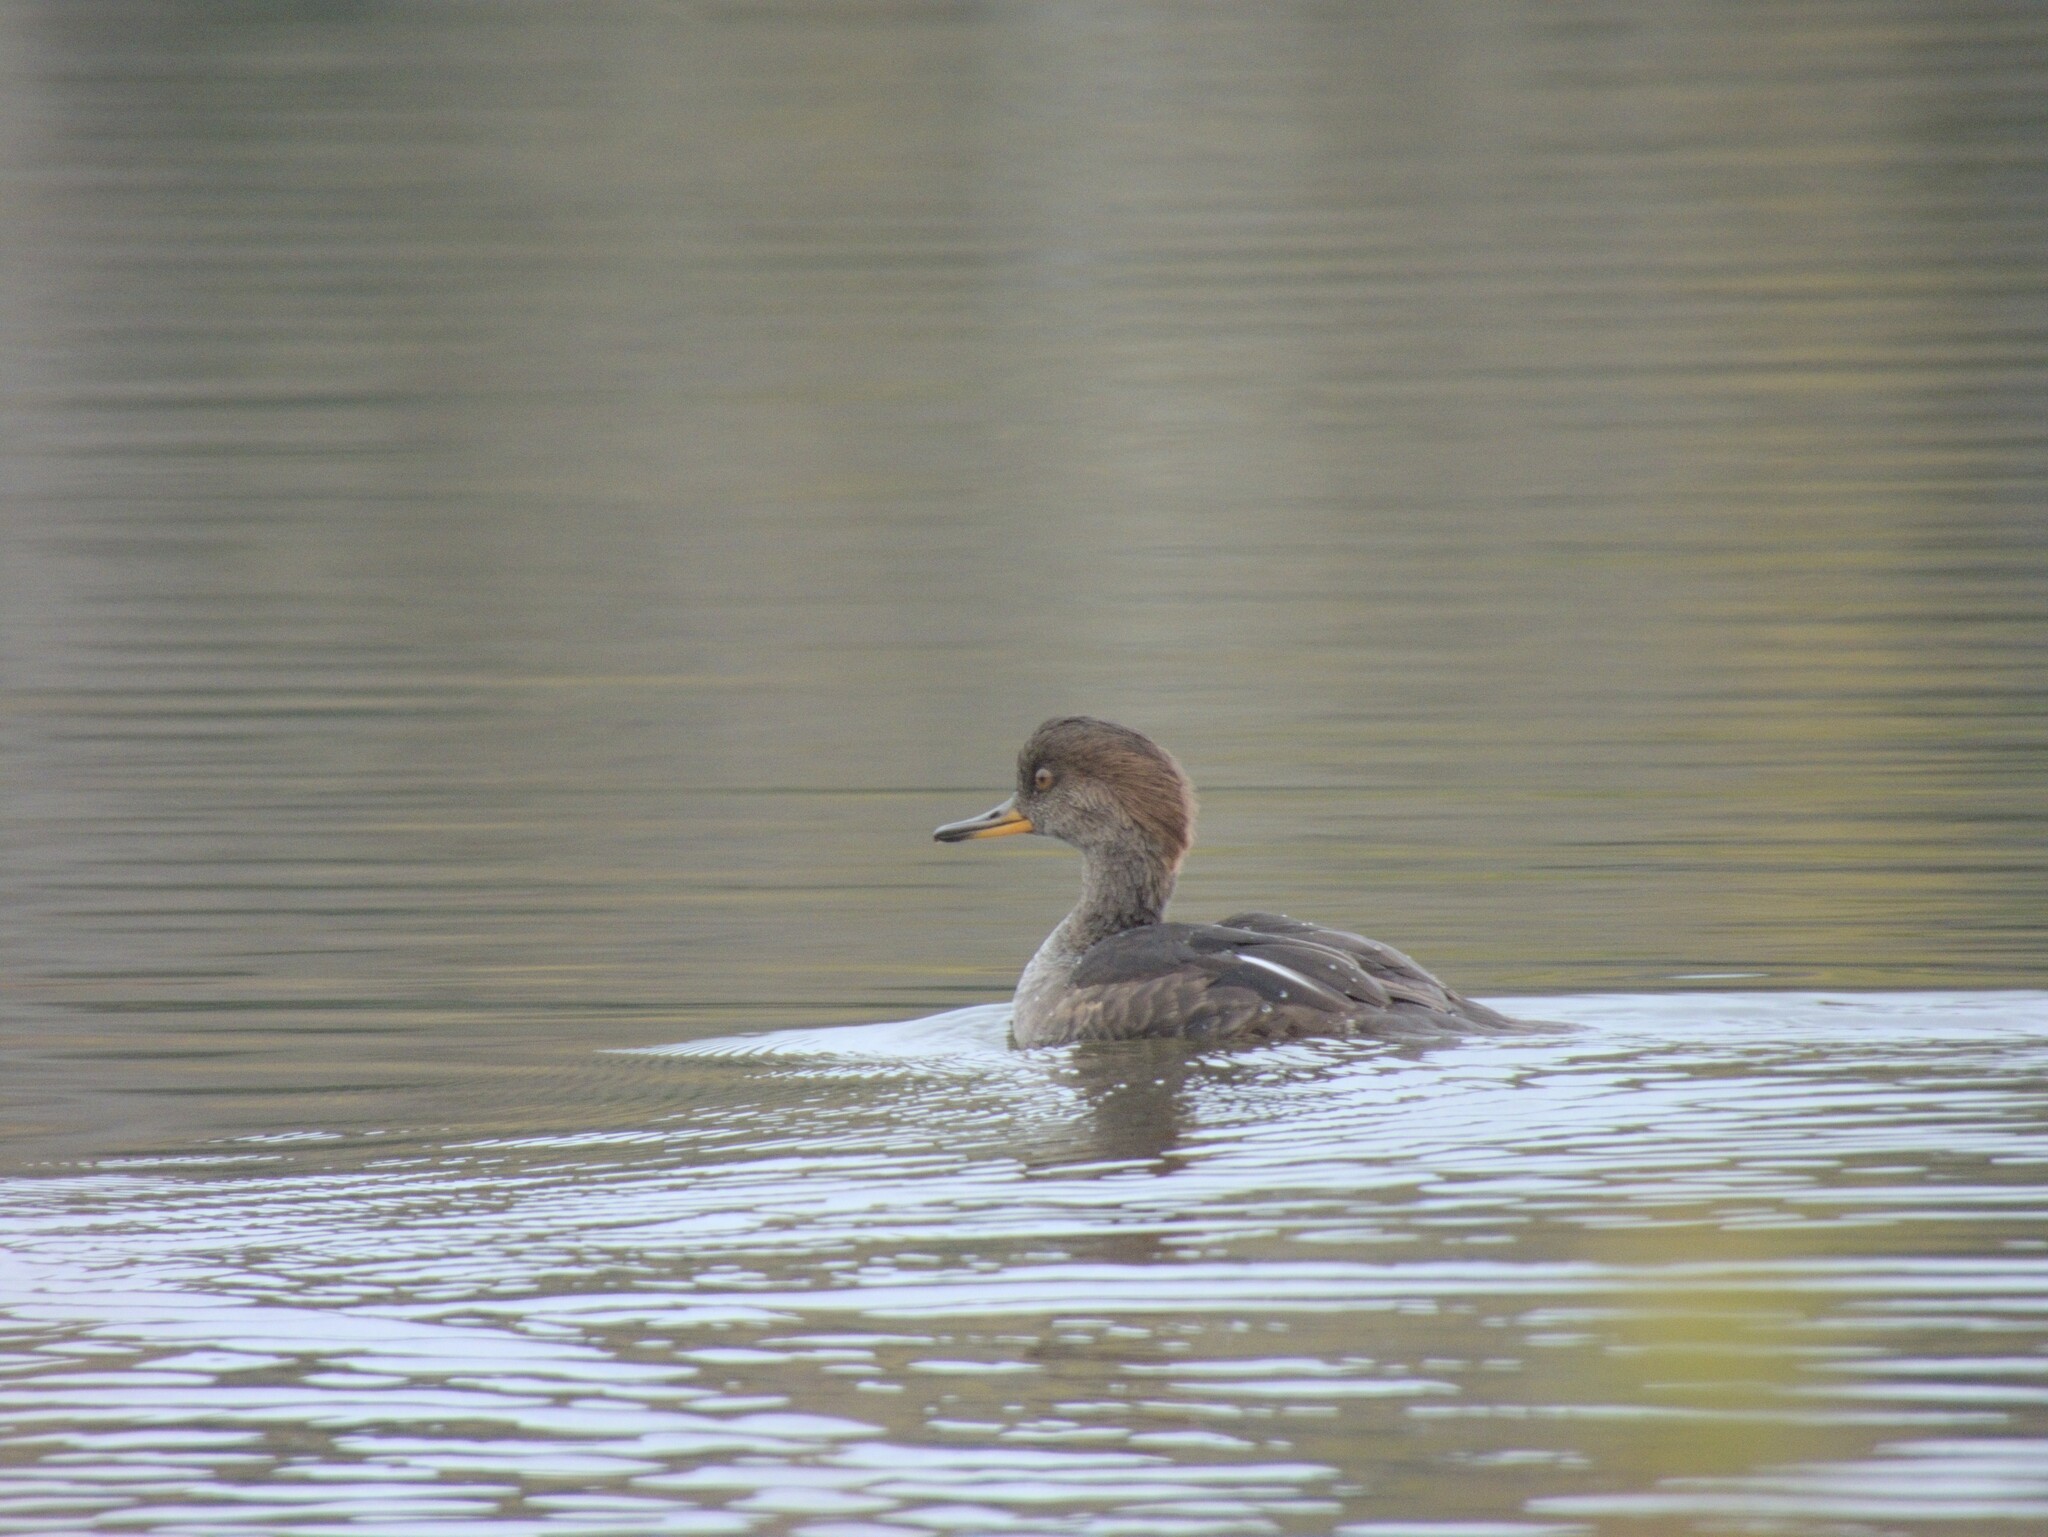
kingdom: Animalia
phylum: Chordata
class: Aves
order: Anseriformes
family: Anatidae
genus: Lophodytes
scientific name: Lophodytes cucullatus
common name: Hooded merganser
